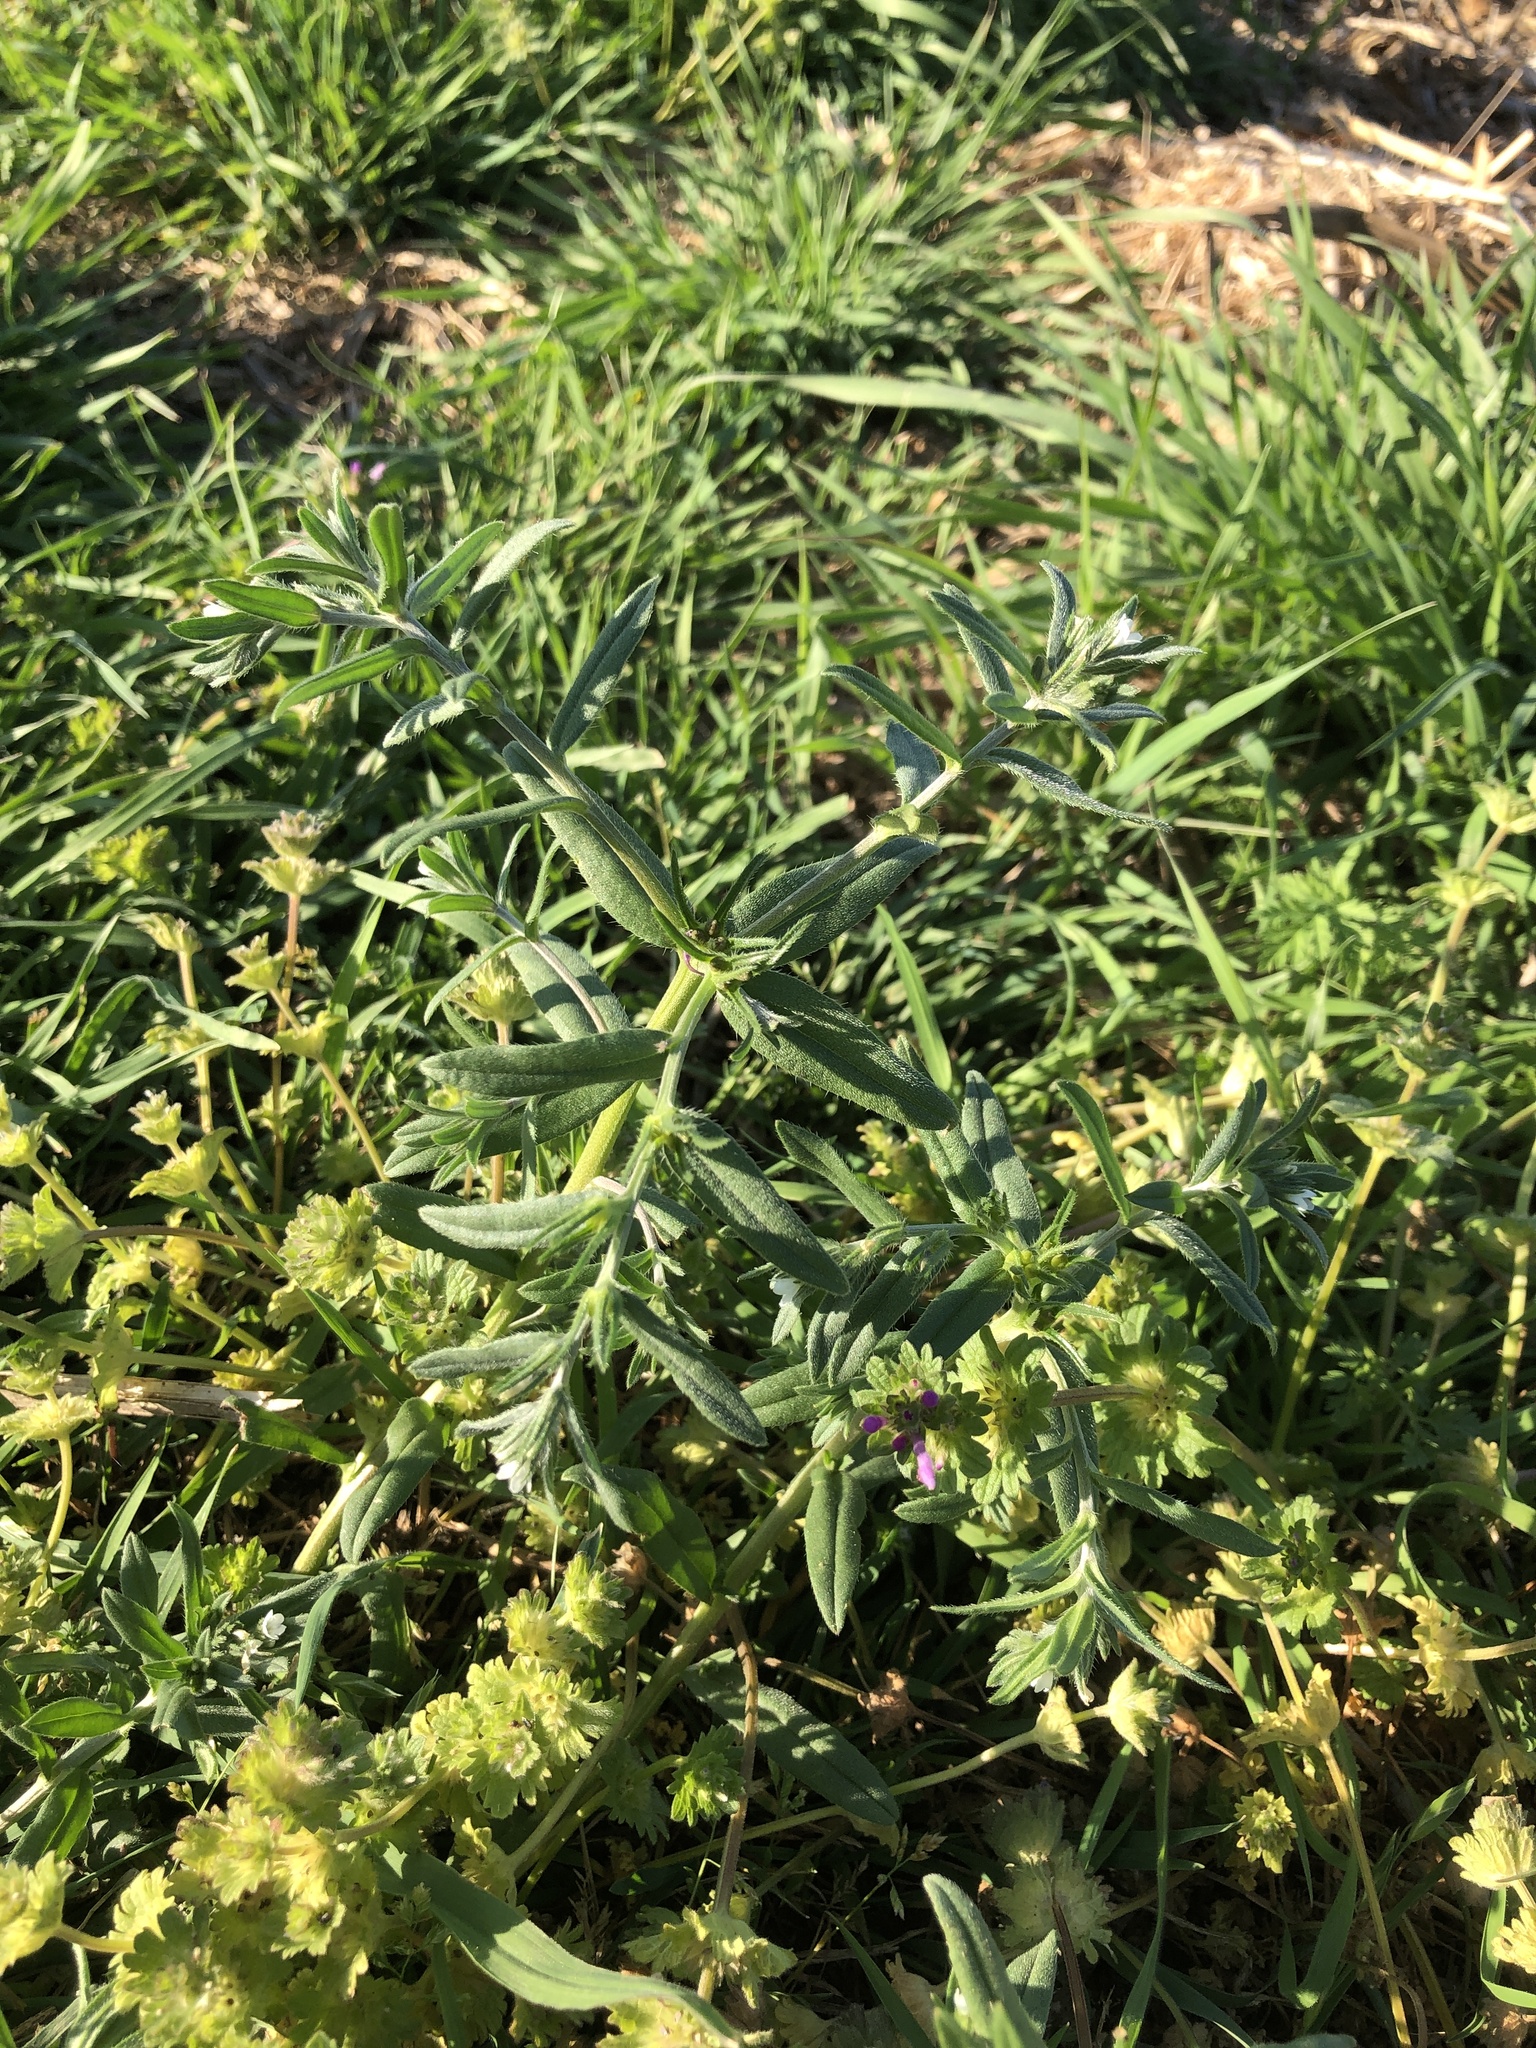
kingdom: Plantae
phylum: Tracheophyta
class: Magnoliopsida
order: Boraginales
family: Boraginaceae
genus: Buglossoides
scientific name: Buglossoides arvensis
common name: Corn gromwell
